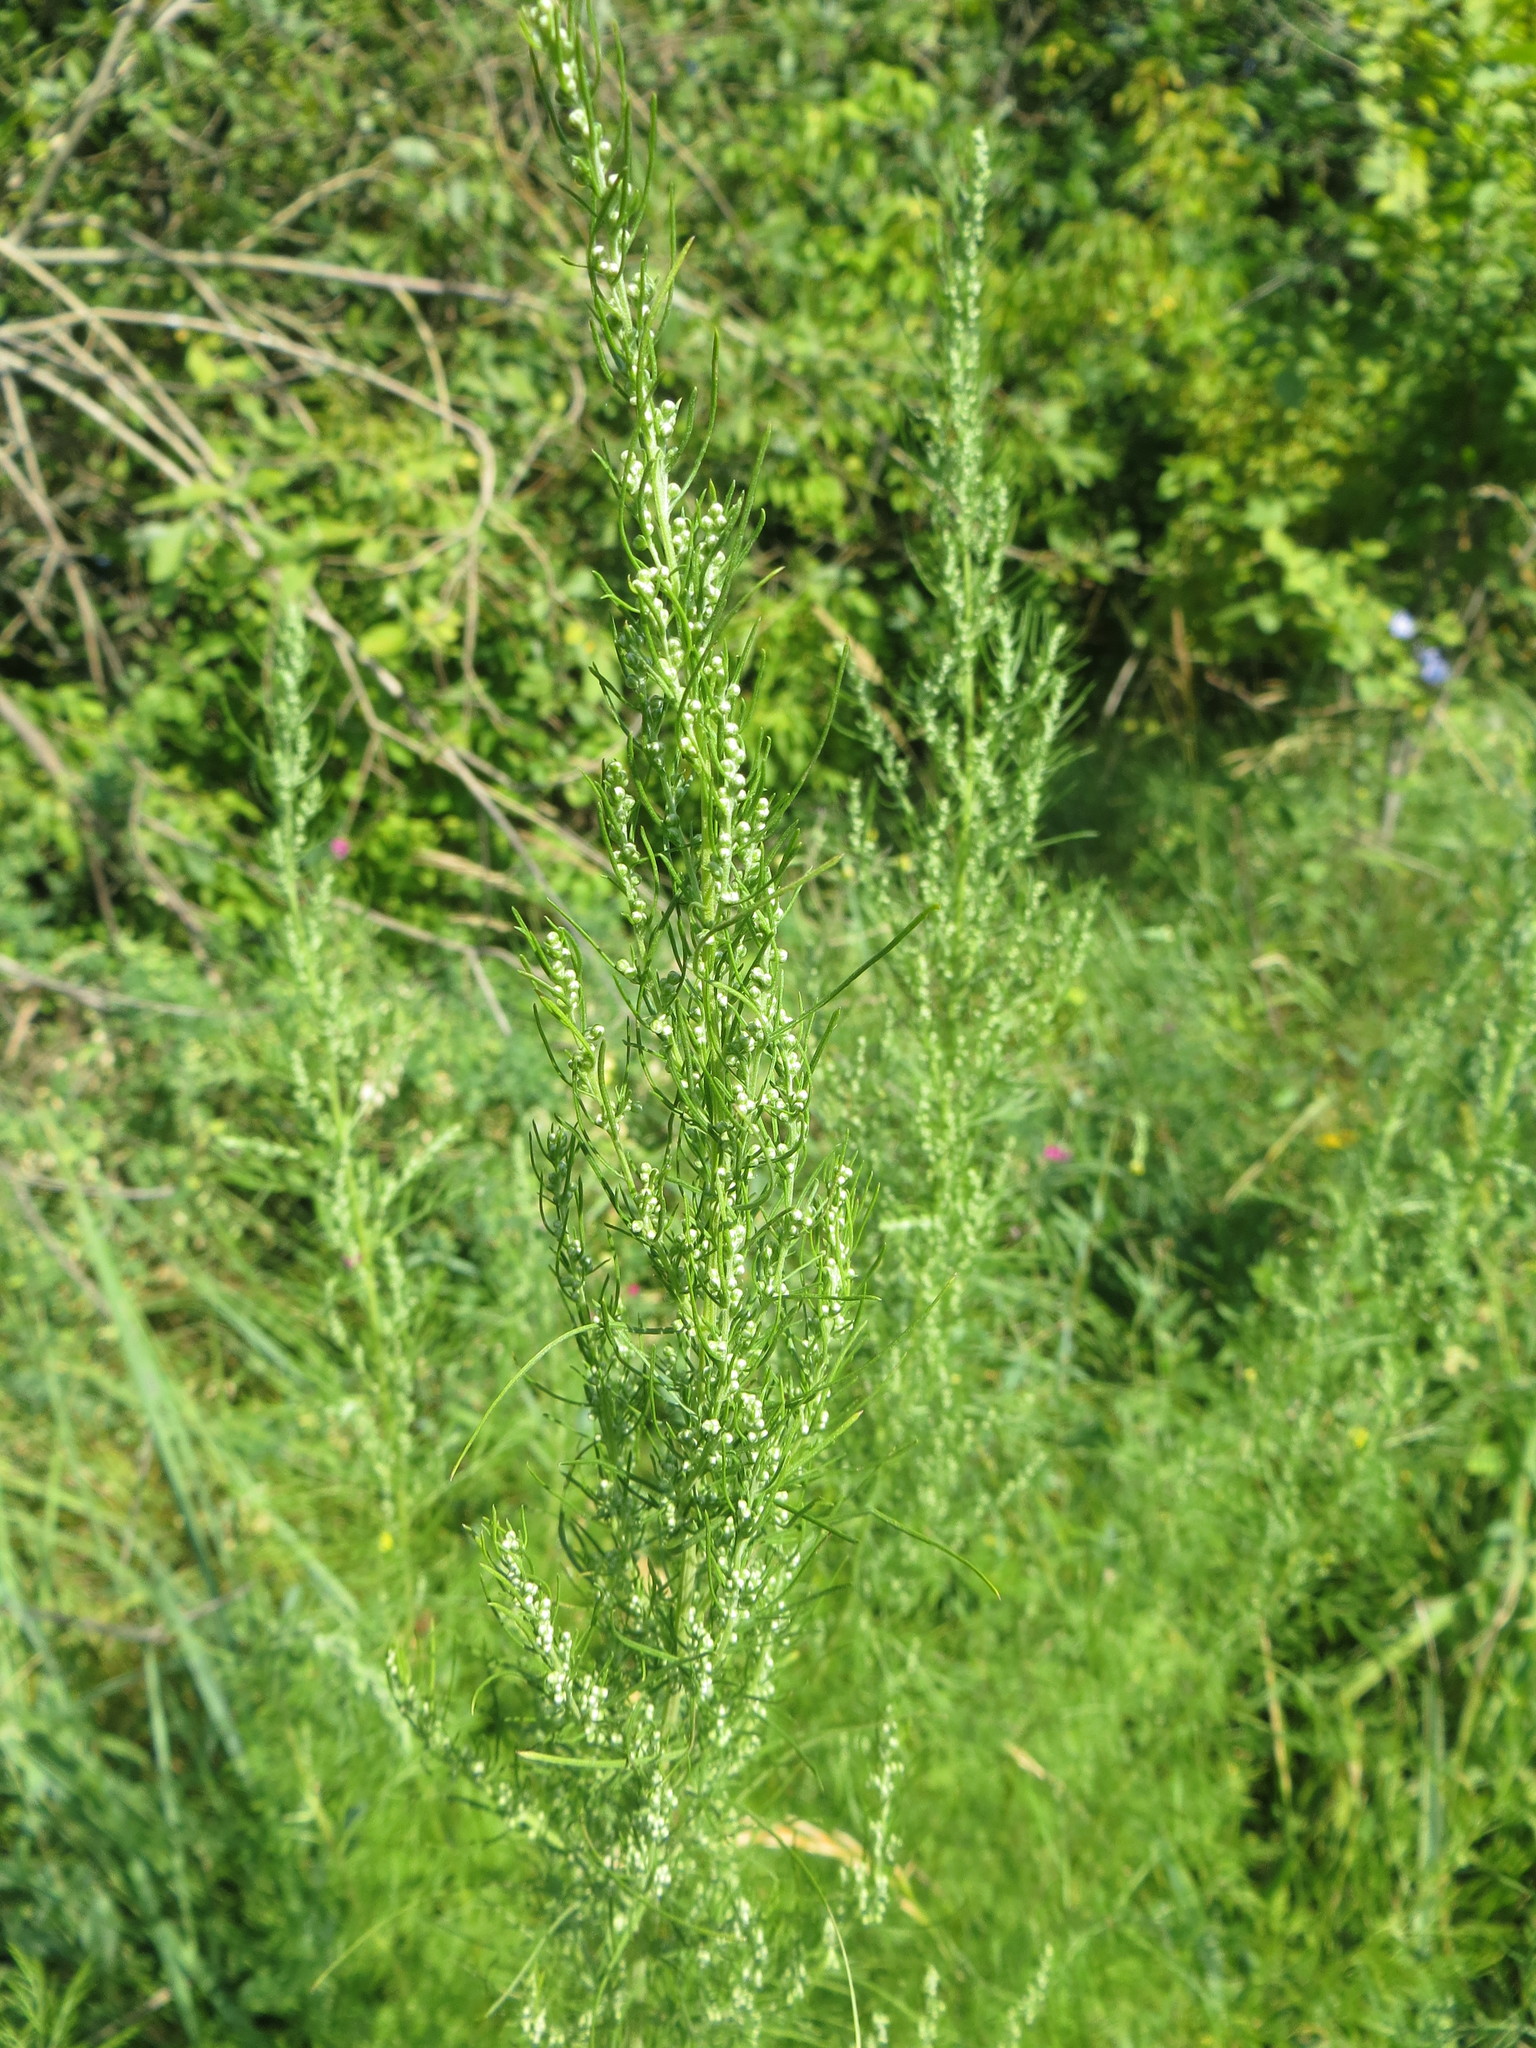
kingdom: Plantae
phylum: Tracheophyta
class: Magnoliopsida
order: Asterales
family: Asteraceae
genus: Artemisia
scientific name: Artemisia abrotanum
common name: Southernwood
